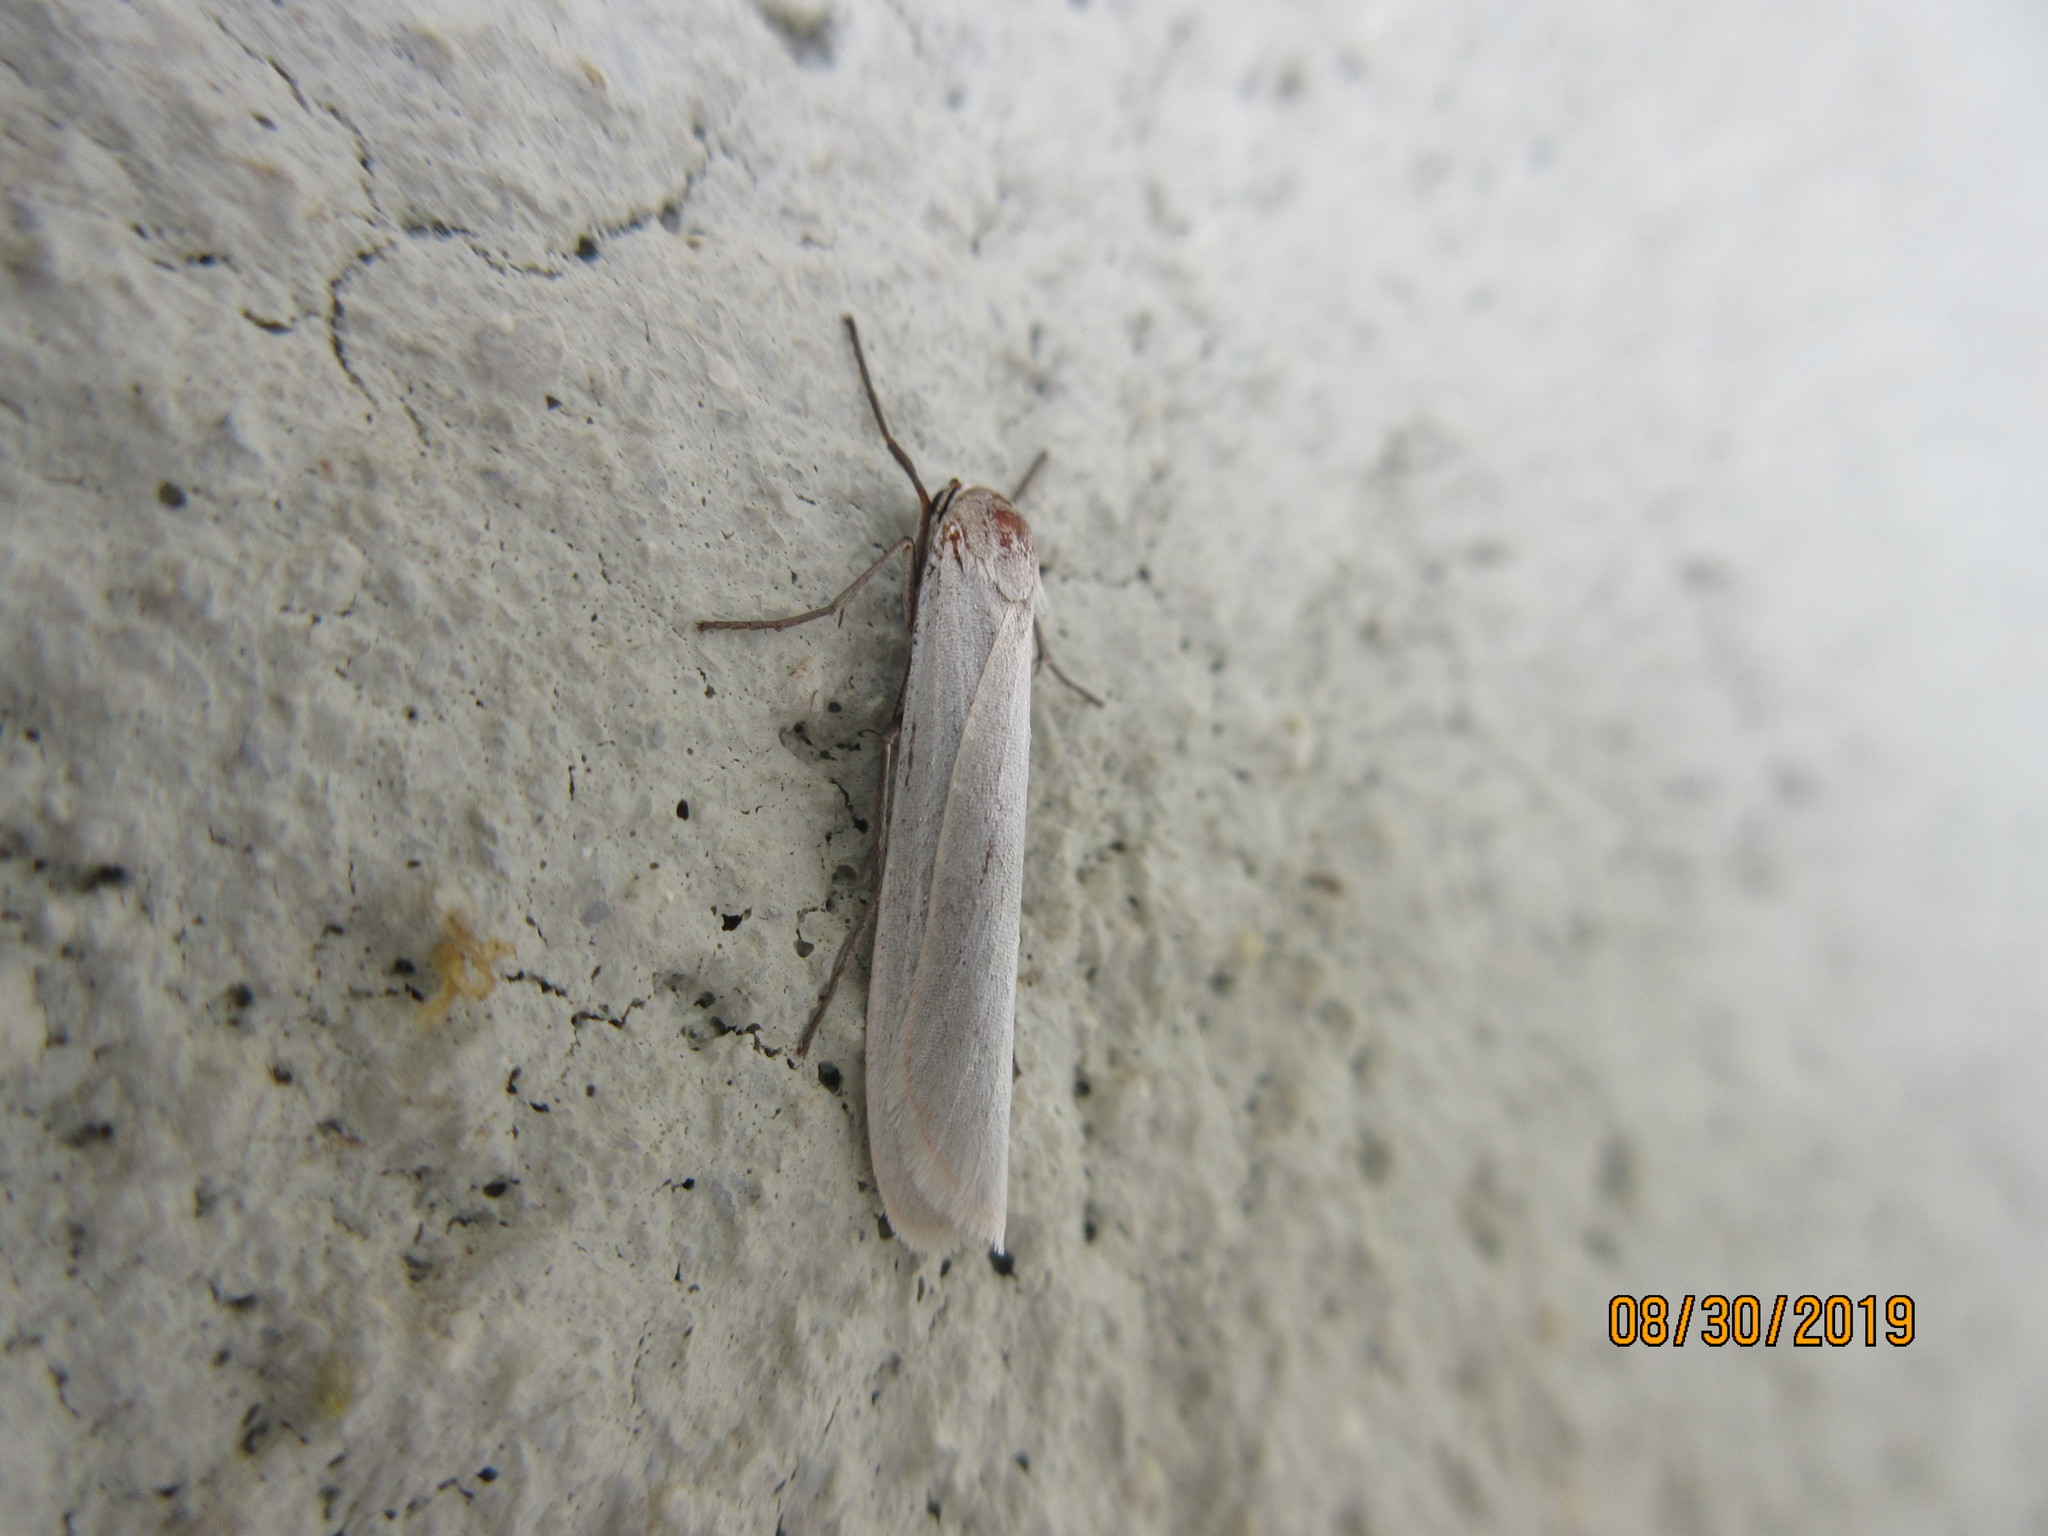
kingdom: Animalia
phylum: Arthropoda
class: Insecta
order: Lepidoptera
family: Erebidae
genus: Crambidia
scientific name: Crambidia casta
